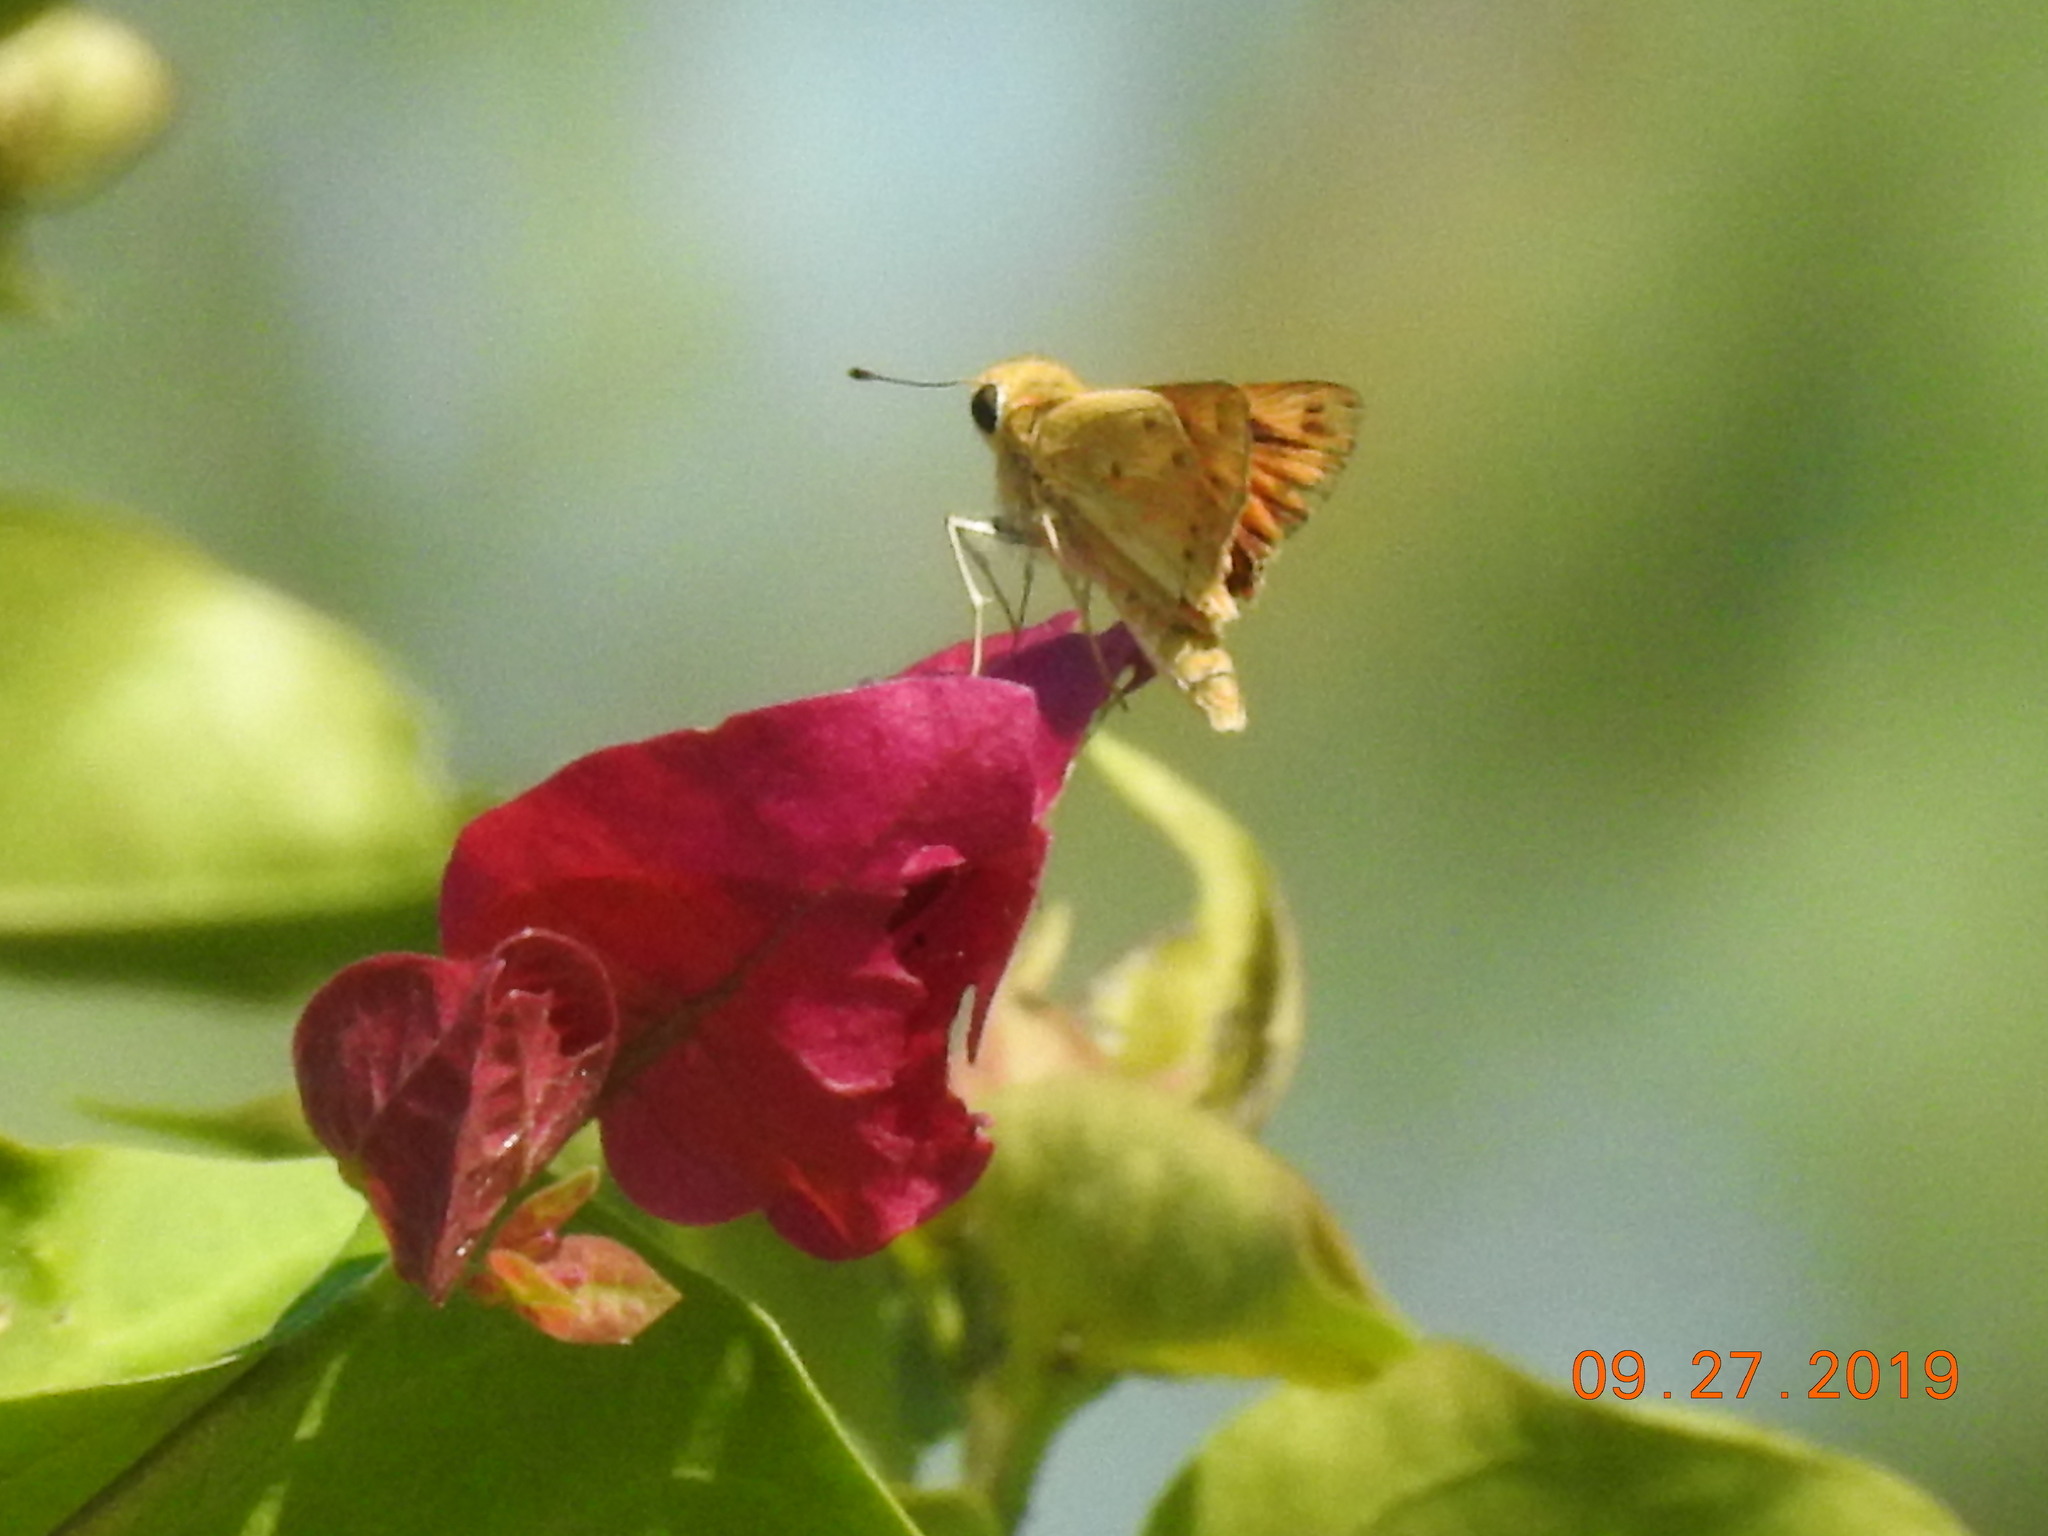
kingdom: Animalia
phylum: Arthropoda
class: Insecta
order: Lepidoptera
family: Hesperiidae
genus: Hylephila
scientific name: Hylephila phyleus
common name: Fiery skipper
